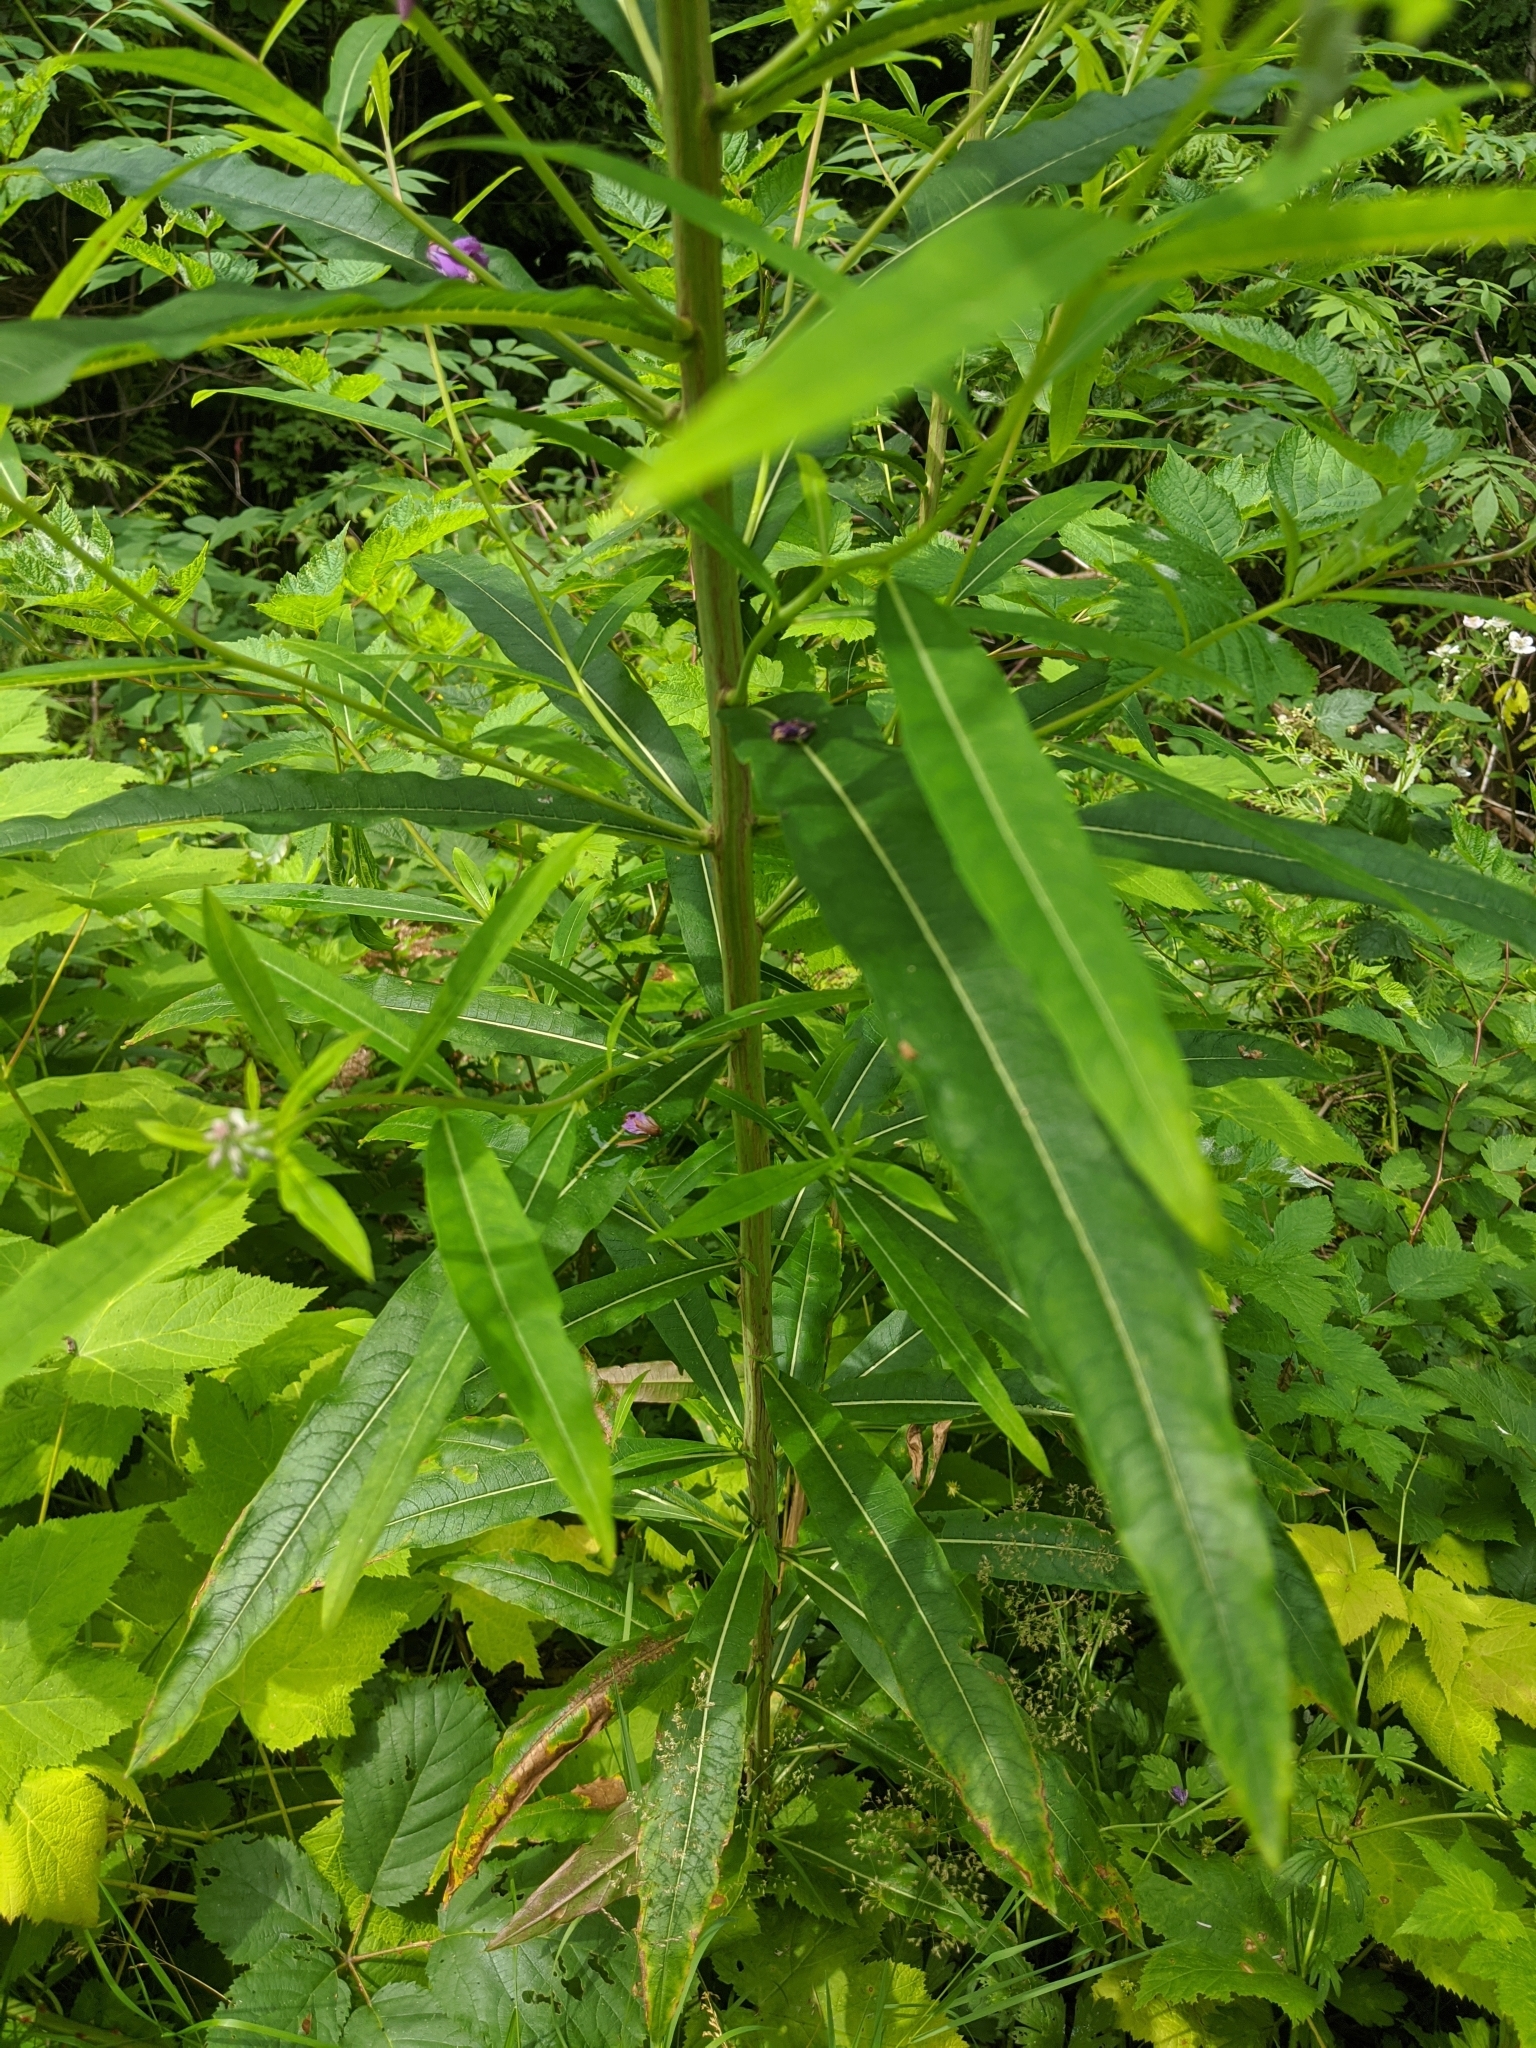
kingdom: Plantae
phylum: Tracheophyta
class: Magnoliopsida
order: Myrtales
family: Onagraceae
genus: Chamaenerion
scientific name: Chamaenerion angustifolium
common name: Fireweed
